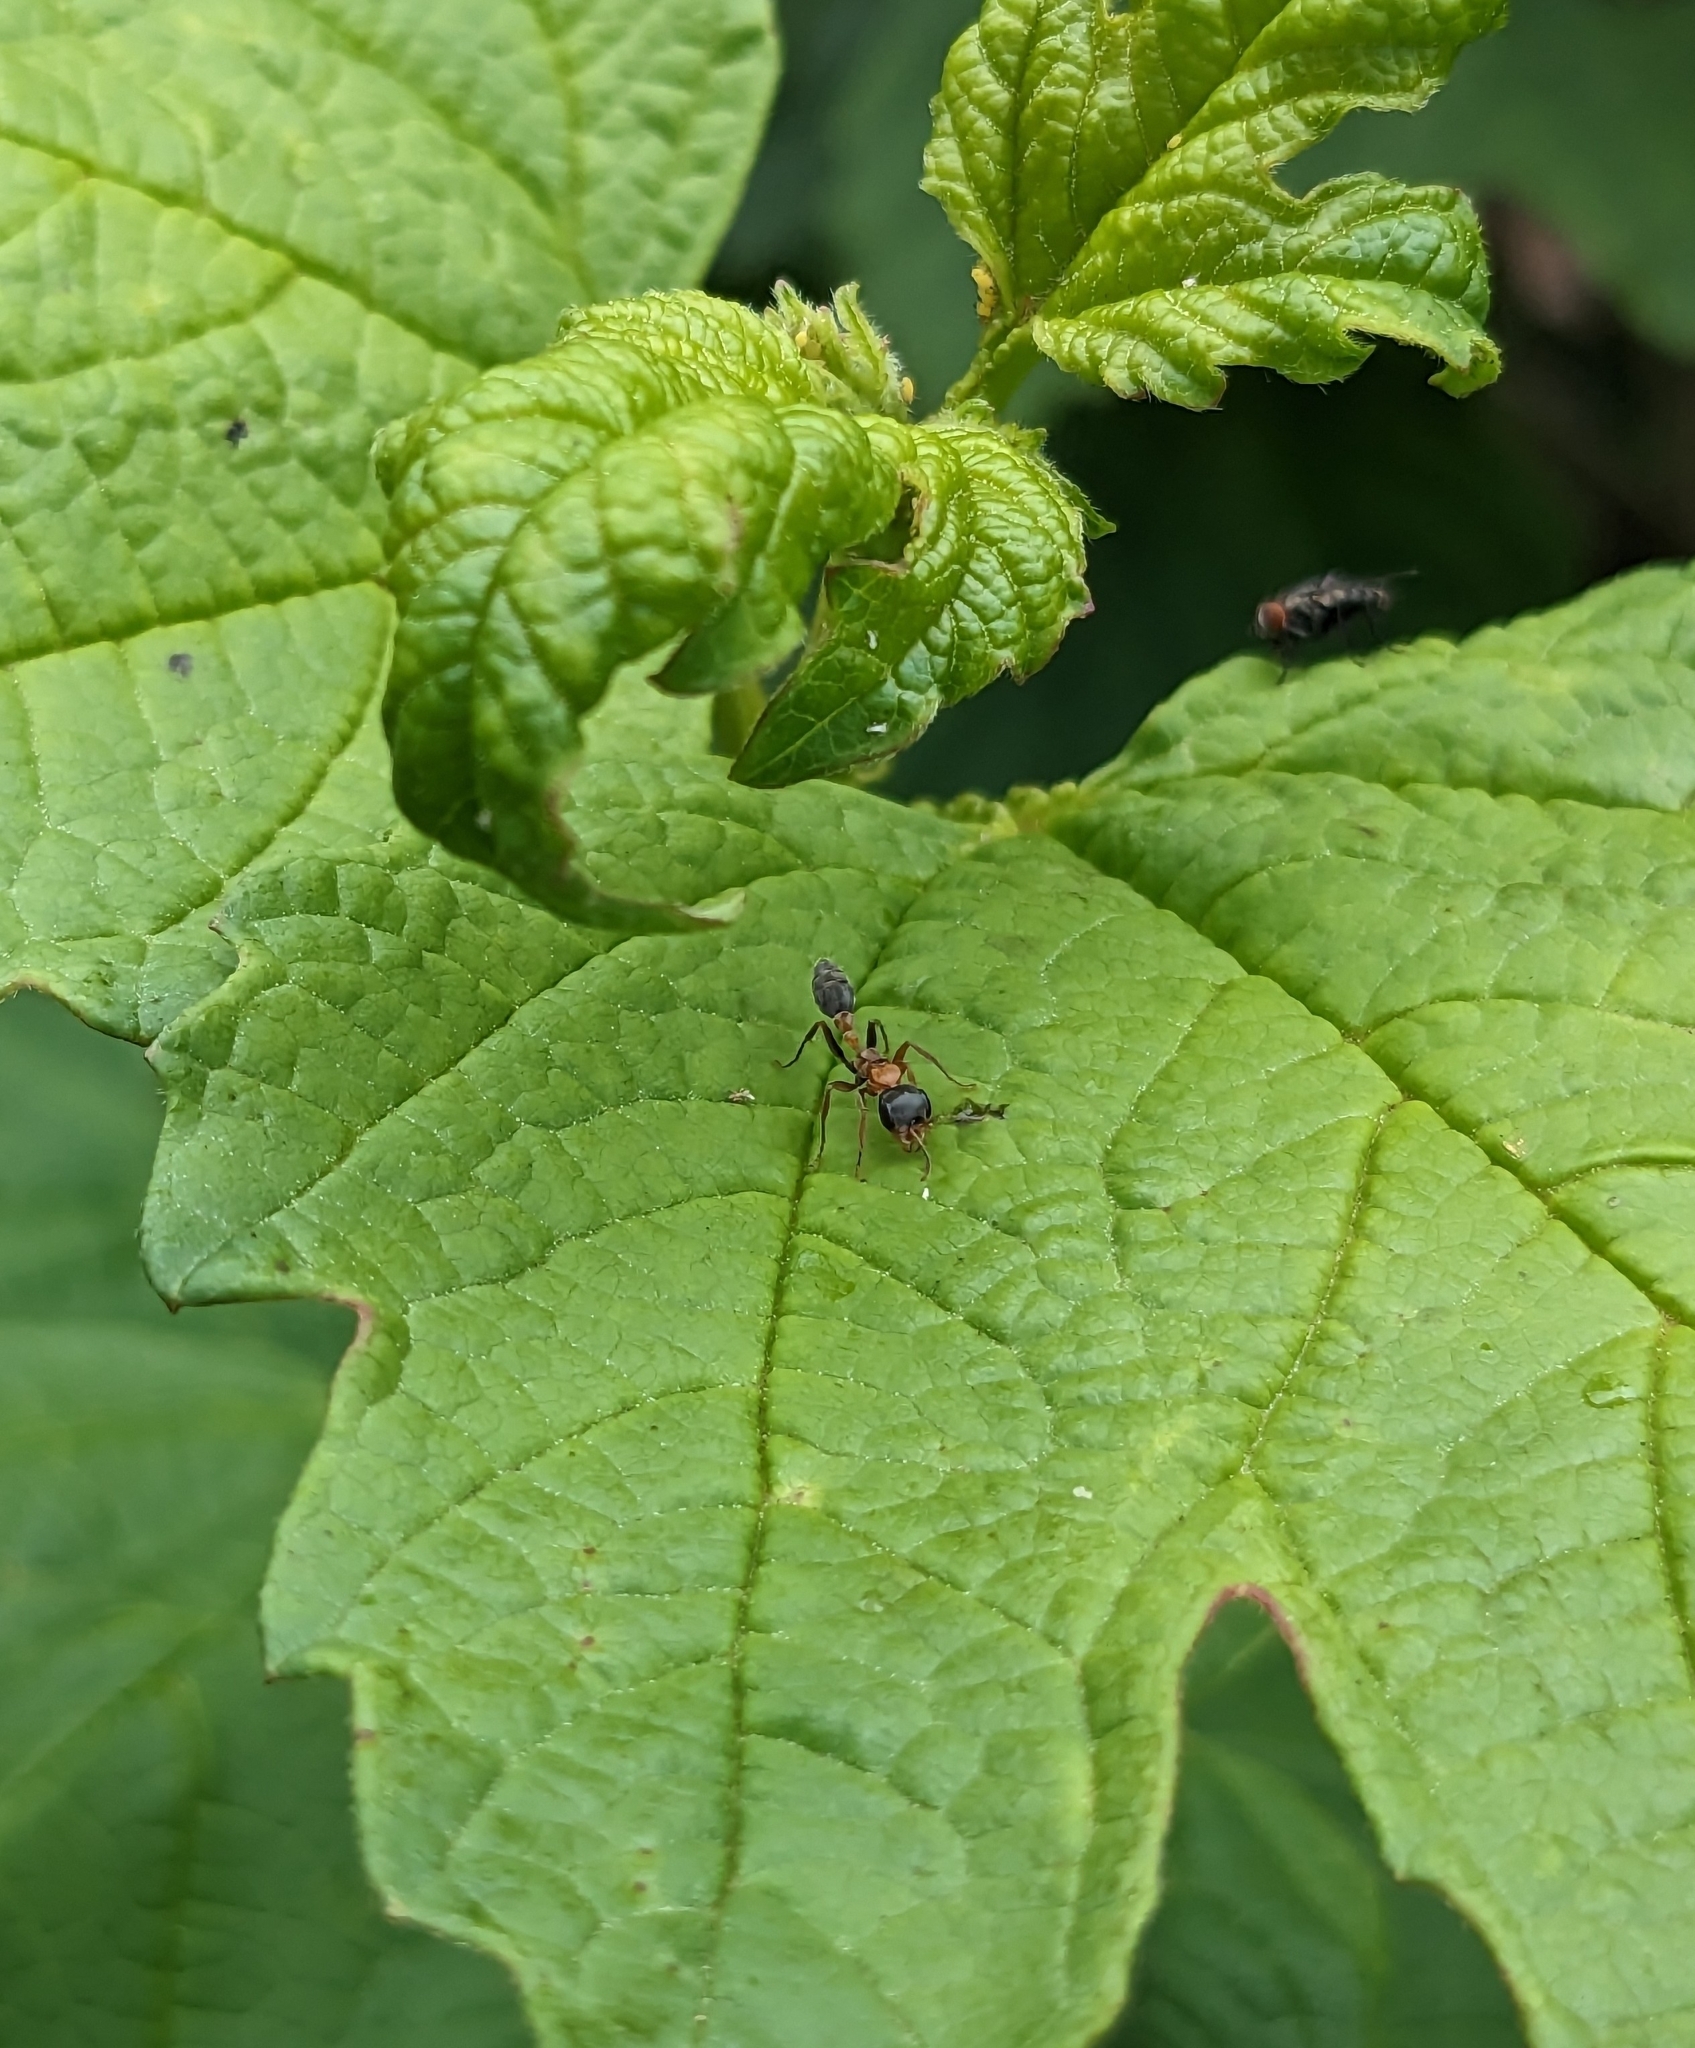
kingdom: Animalia
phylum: Arthropoda
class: Insecta
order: Hymenoptera
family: Formicidae
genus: Pseudomyrmex
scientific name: Pseudomyrmex gracilis
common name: Graceful twig ant
